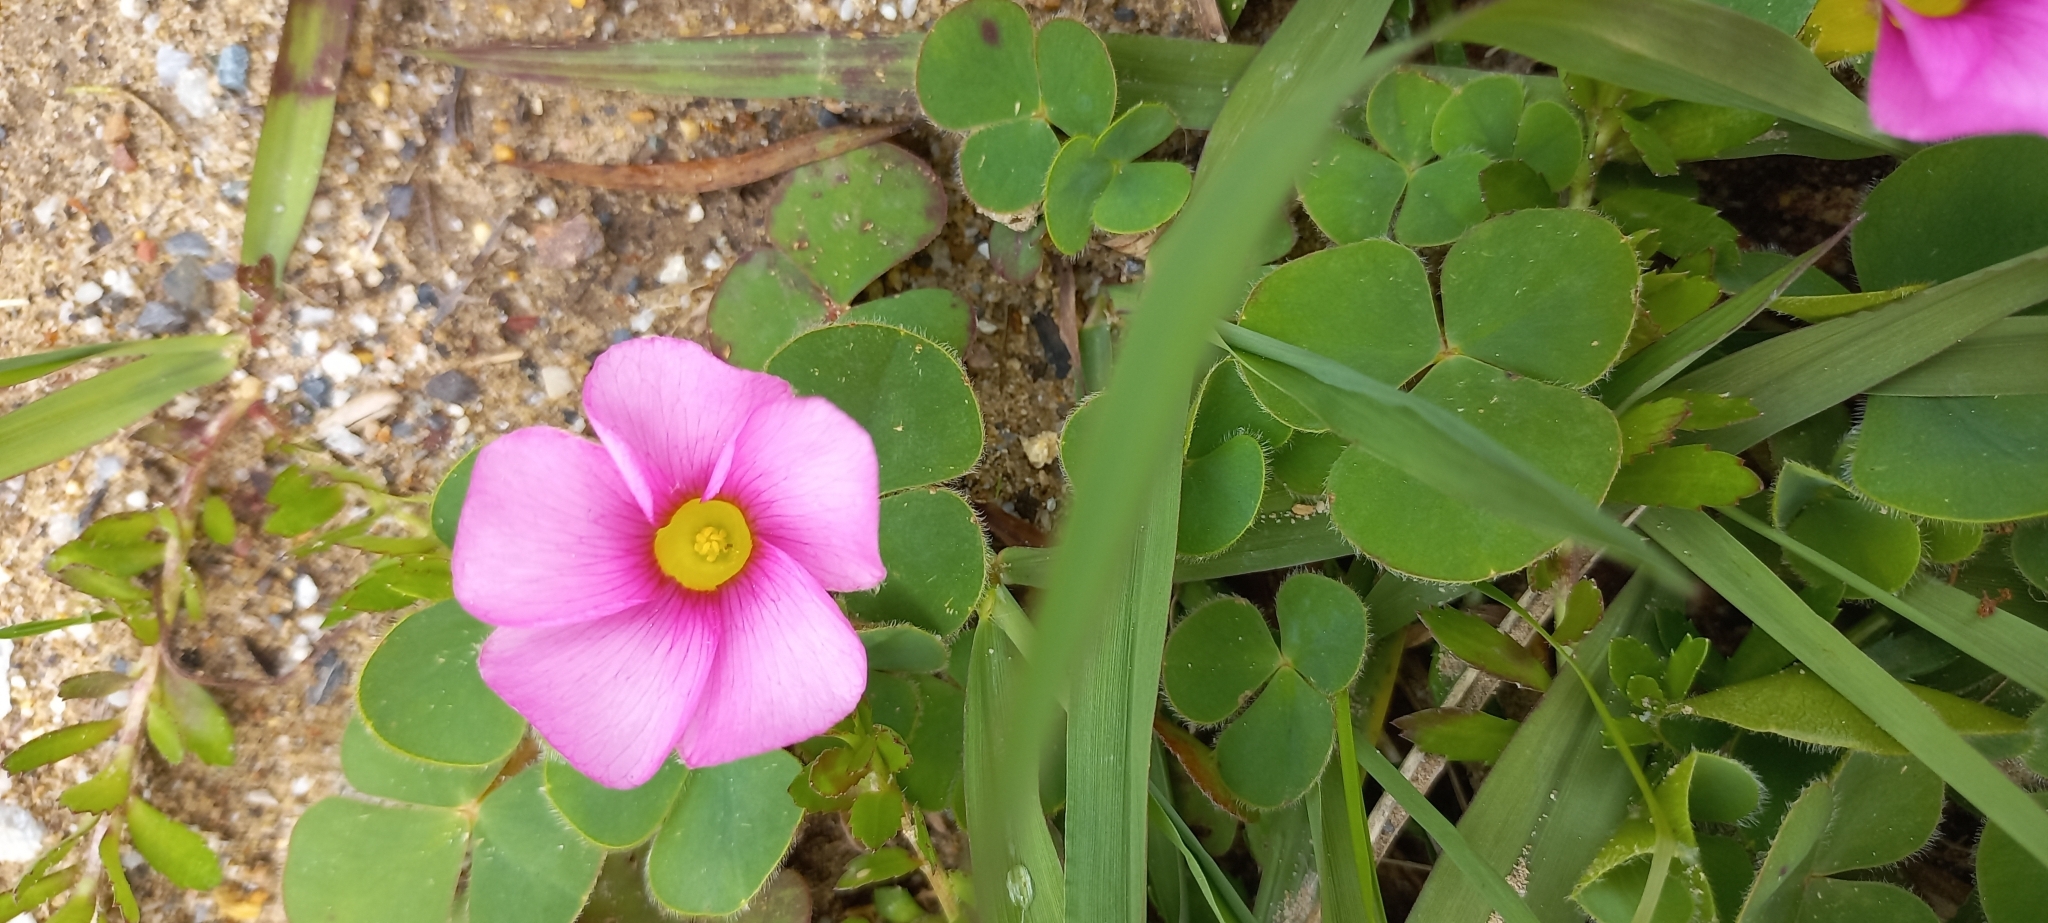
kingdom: Plantae
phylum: Tracheophyta
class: Magnoliopsida
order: Oxalidales
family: Oxalidaceae
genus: Oxalis
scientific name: Oxalis purpurea
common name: Purple woodsorrel
